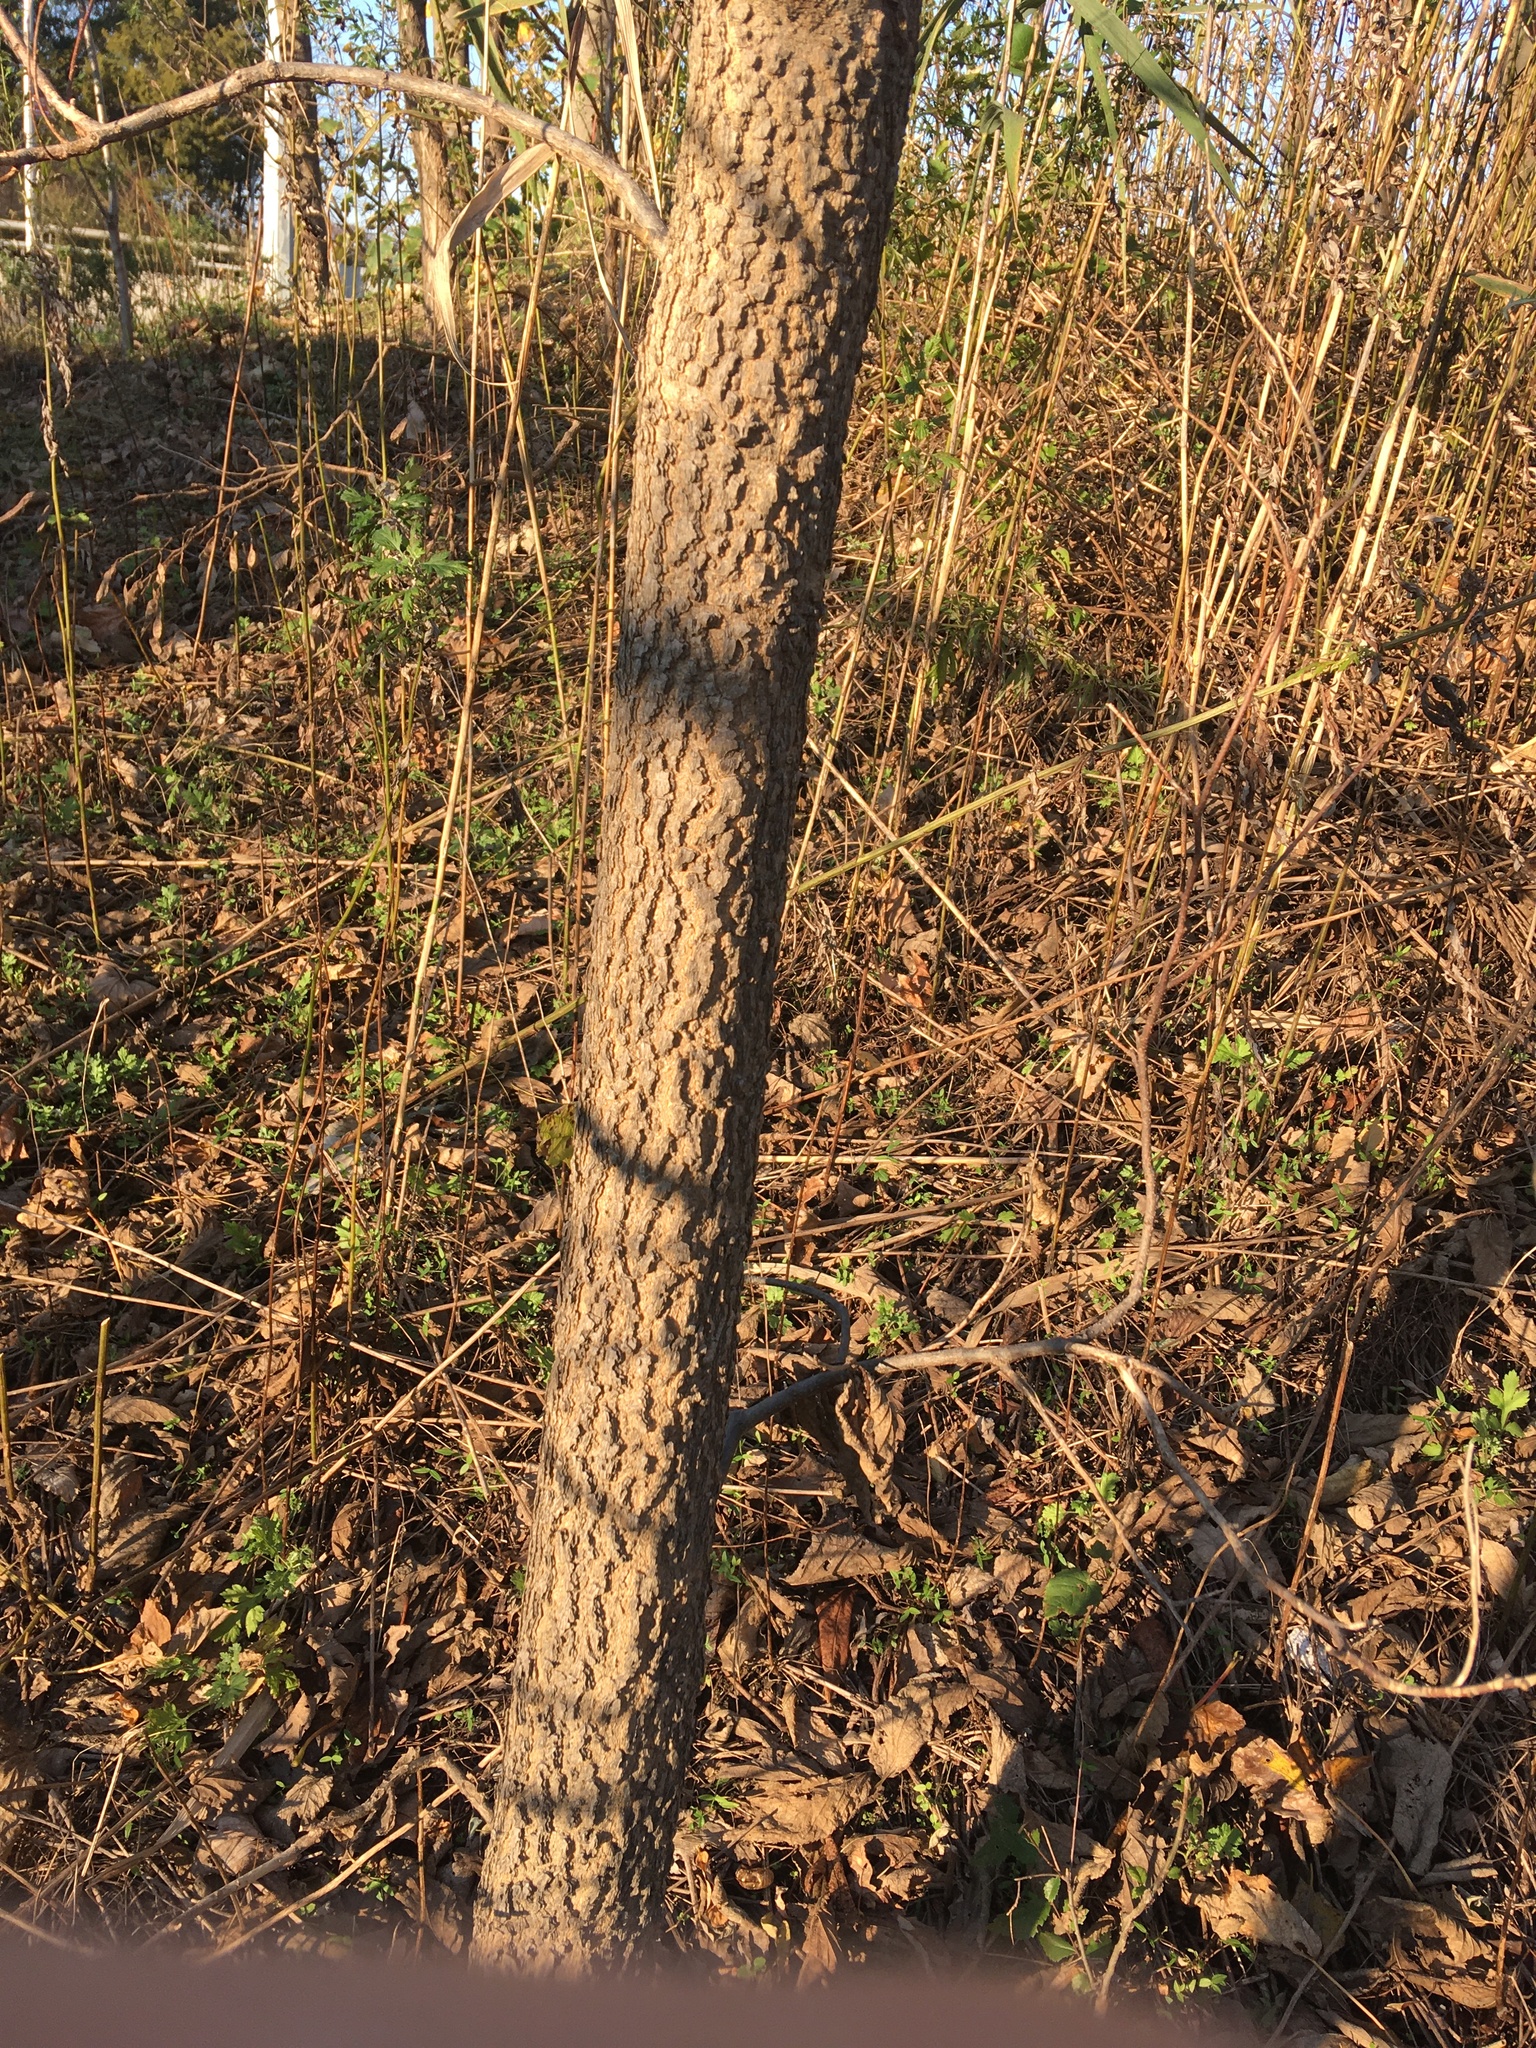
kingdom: Plantae
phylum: Tracheophyta
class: Magnoliopsida
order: Rosales
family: Cannabaceae
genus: Celtis
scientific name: Celtis occidentalis
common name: Common hackberry
